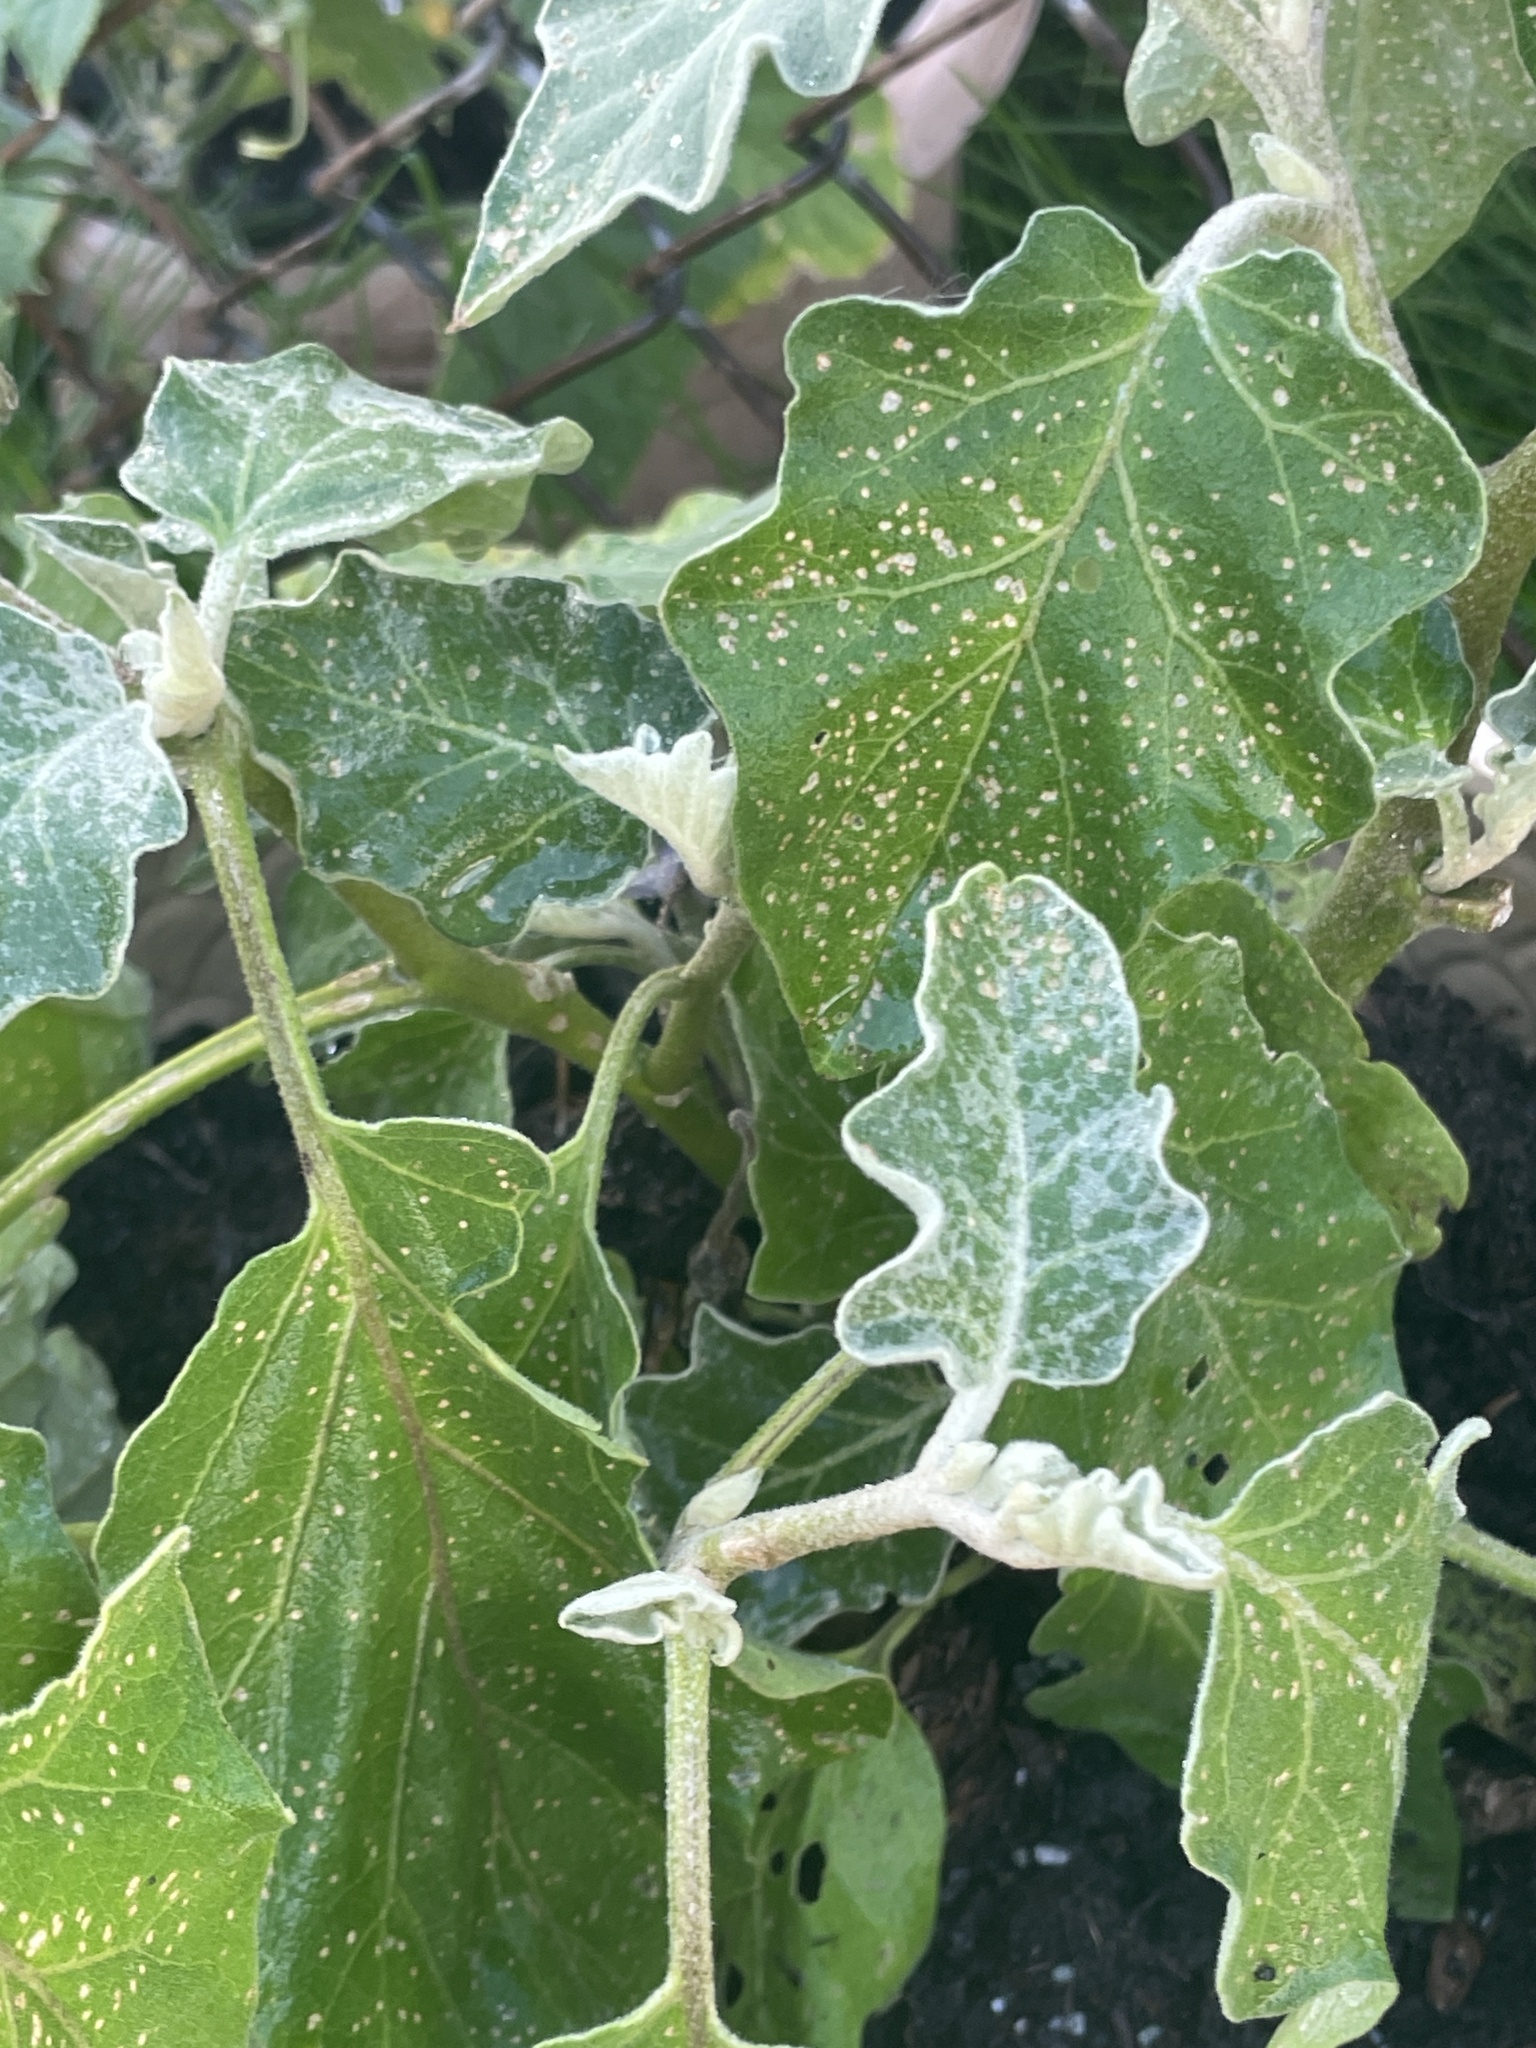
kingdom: Animalia
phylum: Arthropoda
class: Insecta
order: Coleoptera
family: Chrysomelidae
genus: Epitrix
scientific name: Epitrix fuscula
